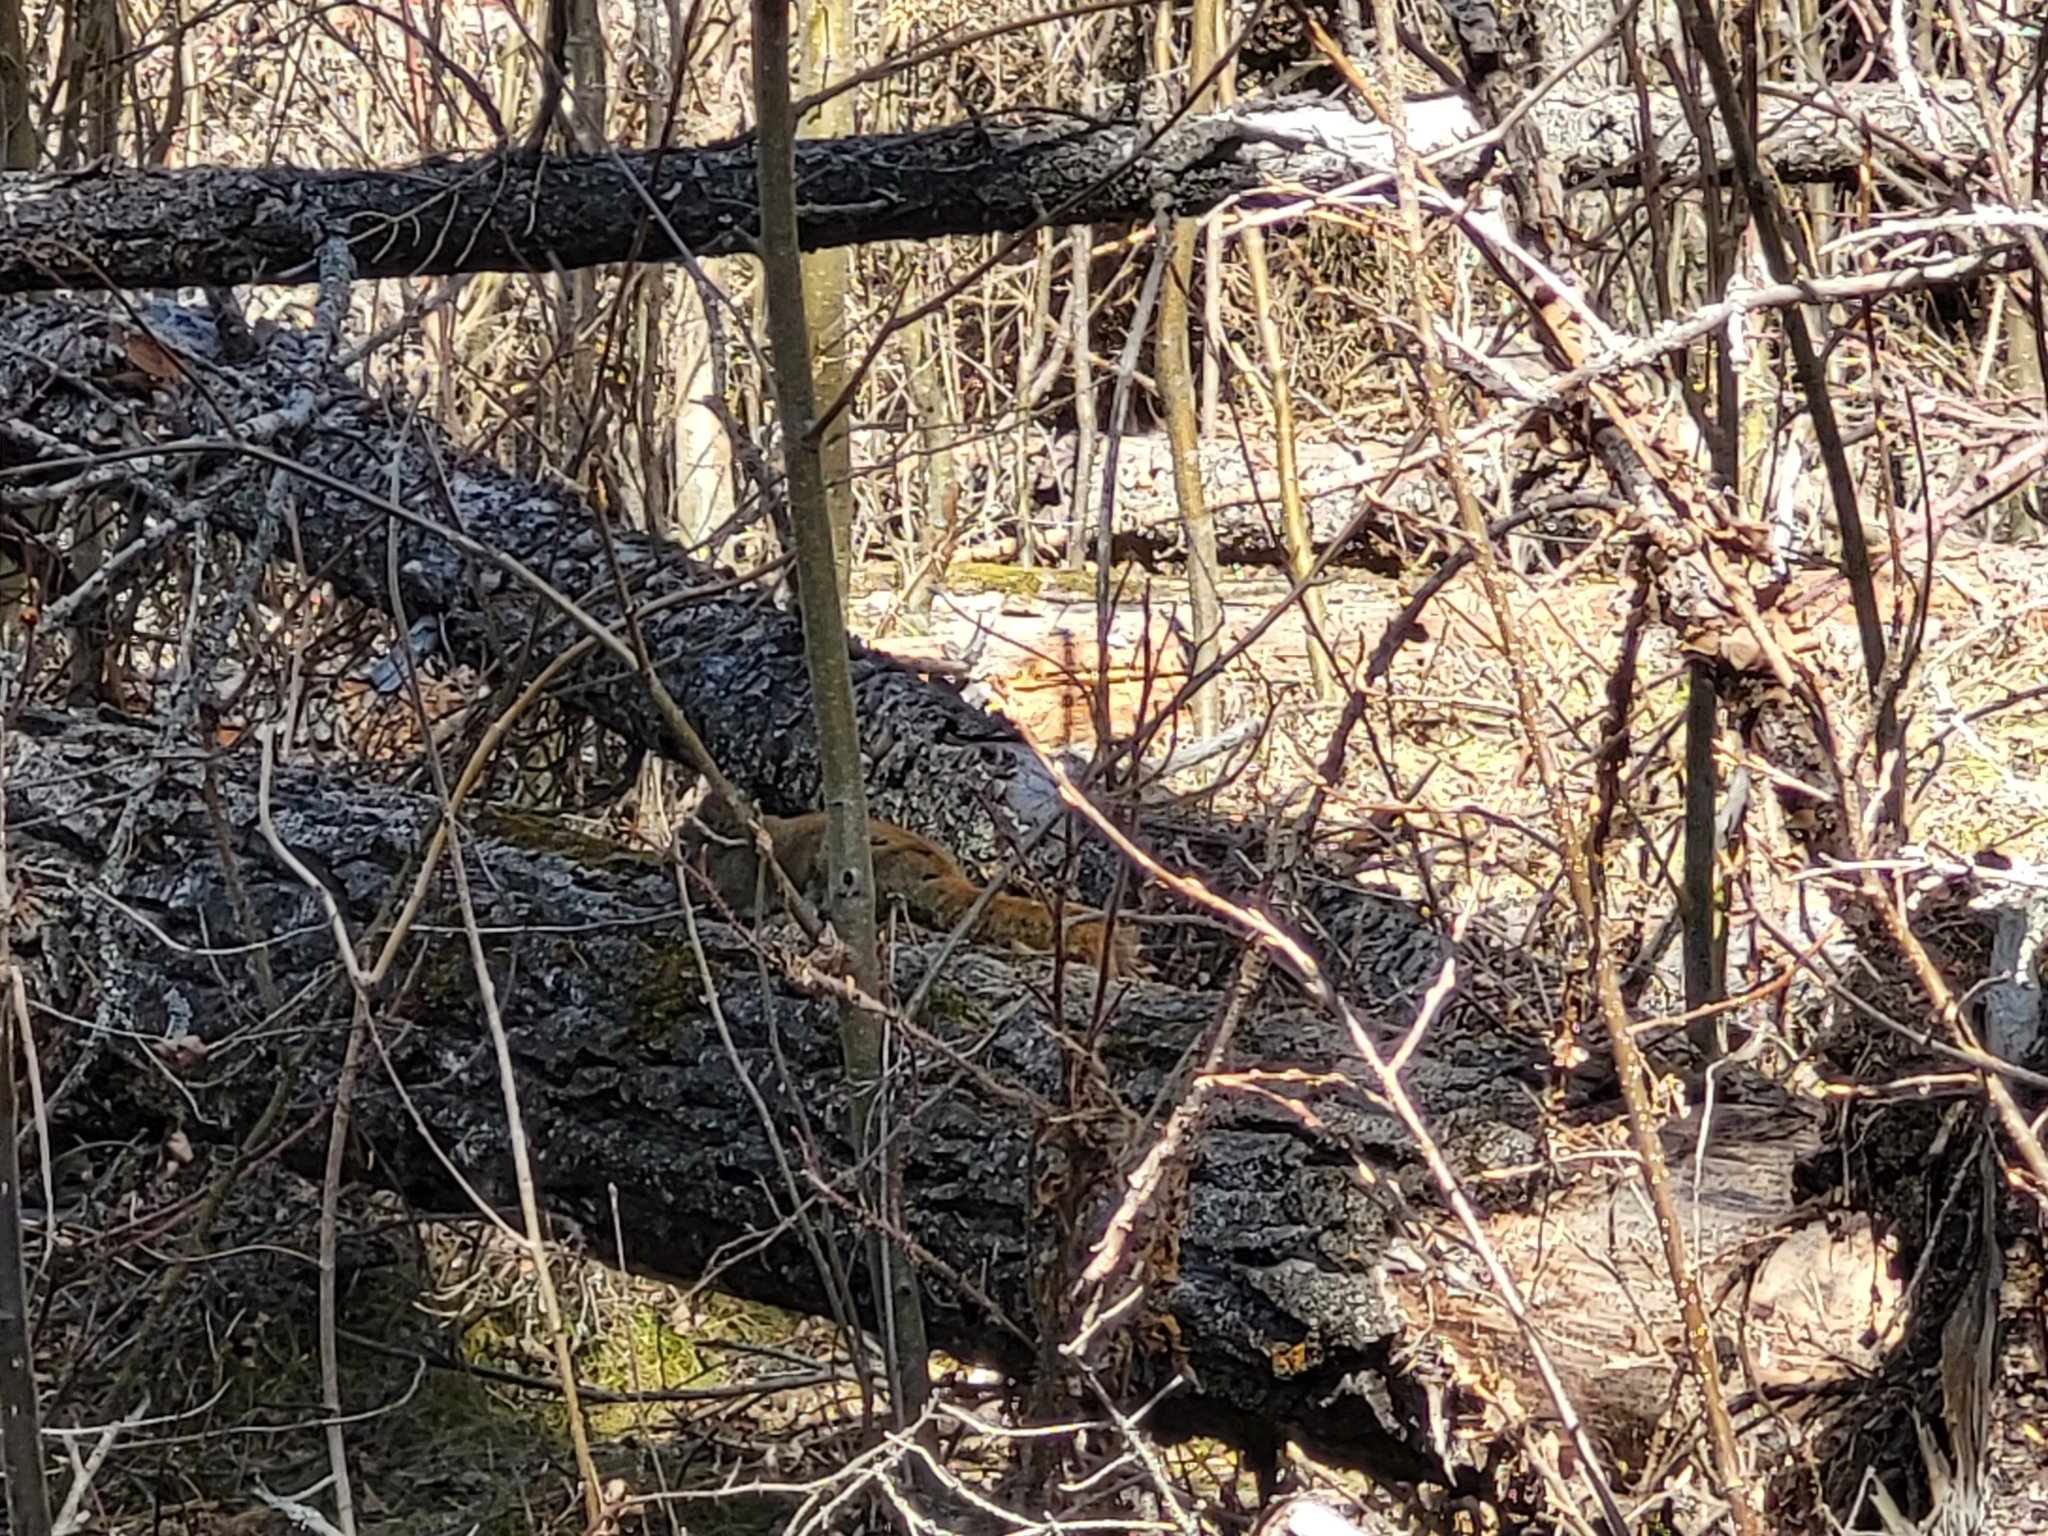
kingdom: Animalia
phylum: Chordata
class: Mammalia
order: Rodentia
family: Sciuridae
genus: Tamiasciurus
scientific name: Tamiasciurus hudsonicus
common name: Red squirrel
